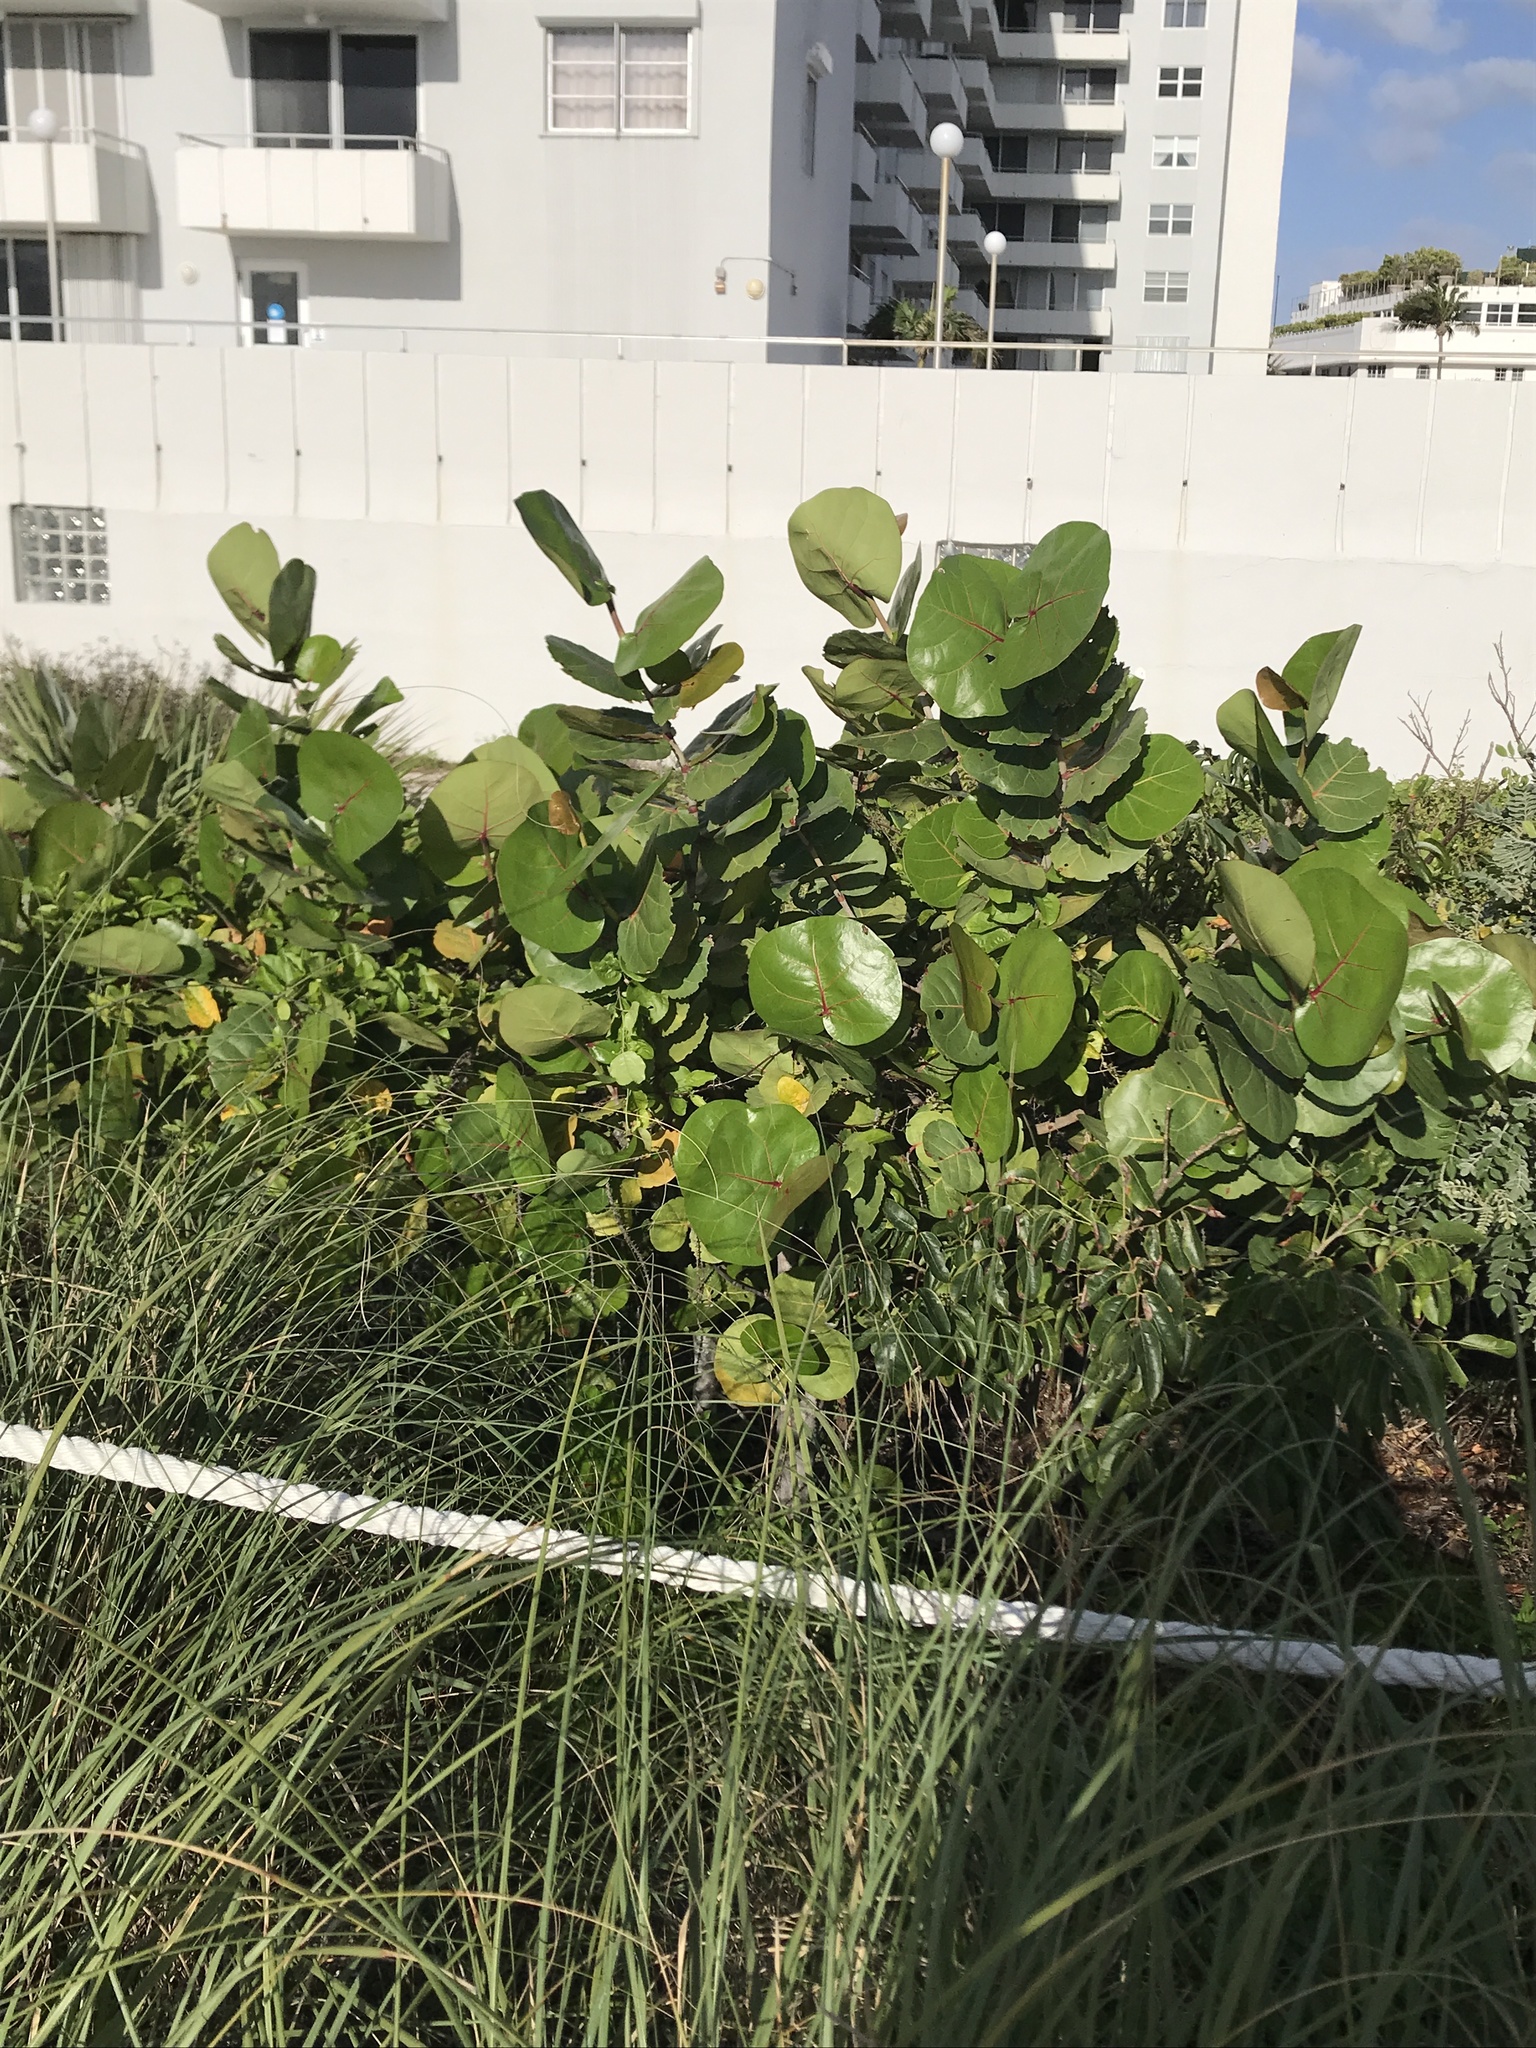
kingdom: Plantae
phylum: Tracheophyta
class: Magnoliopsida
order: Caryophyllales
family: Polygonaceae
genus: Coccoloba
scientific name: Coccoloba uvifera
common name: Seagrape
